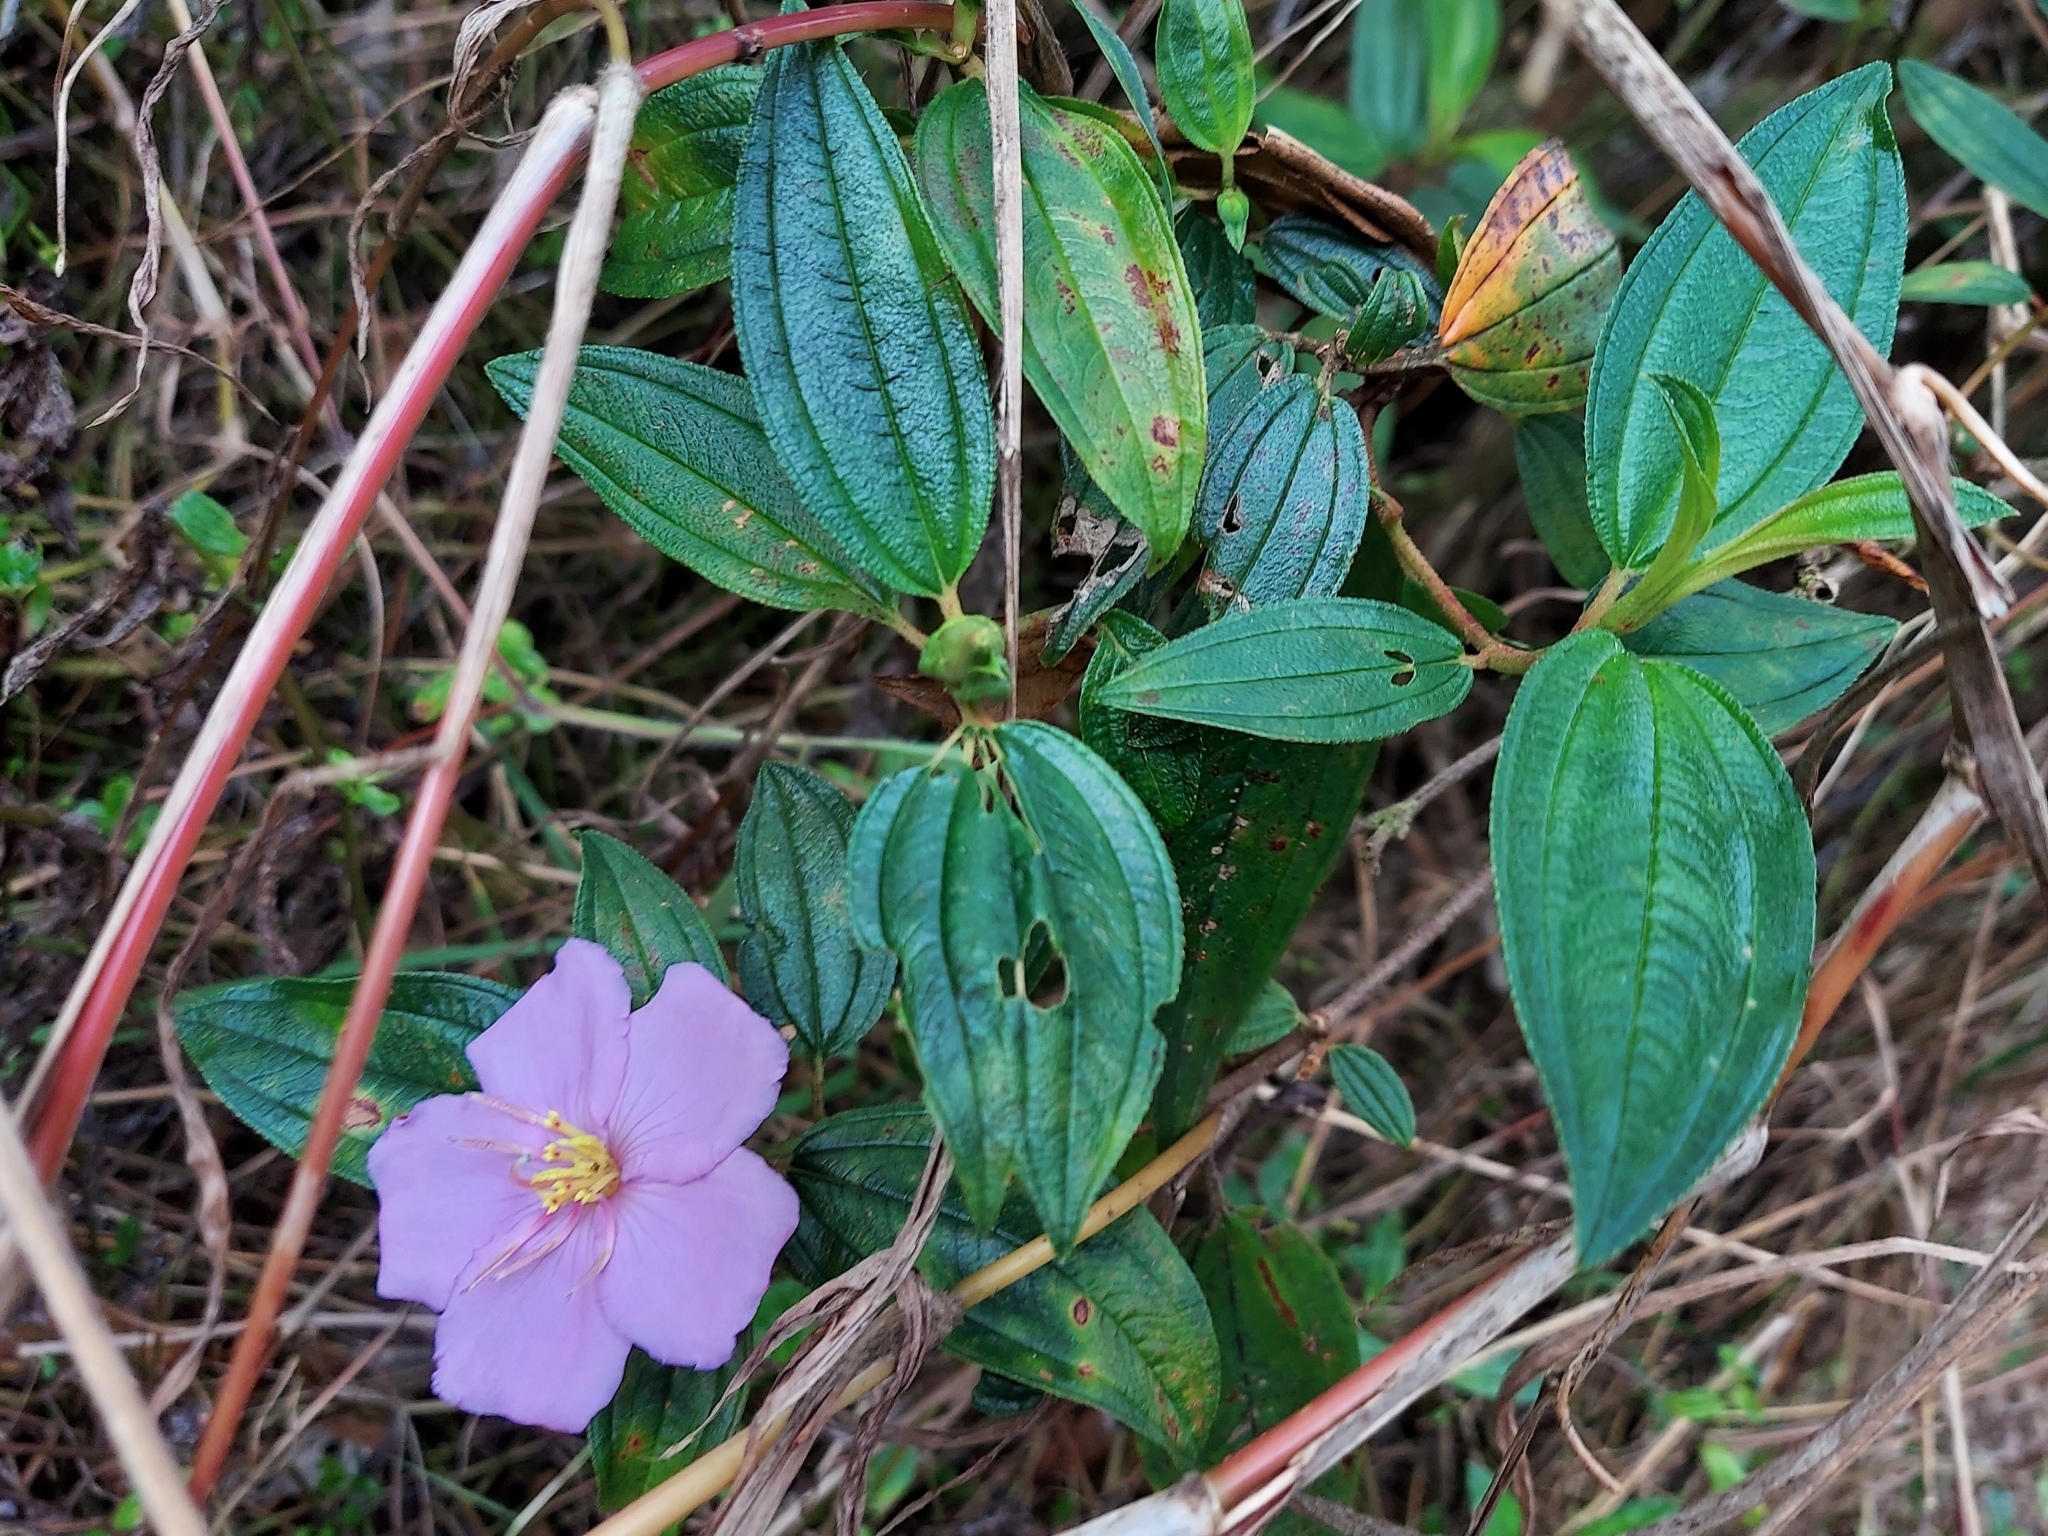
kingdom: Plantae
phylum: Tracheophyta
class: Magnoliopsida
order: Myrtales
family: Melastomataceae
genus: Melastoma
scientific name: Melastoma malabathricum
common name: Indian-rhododendron
